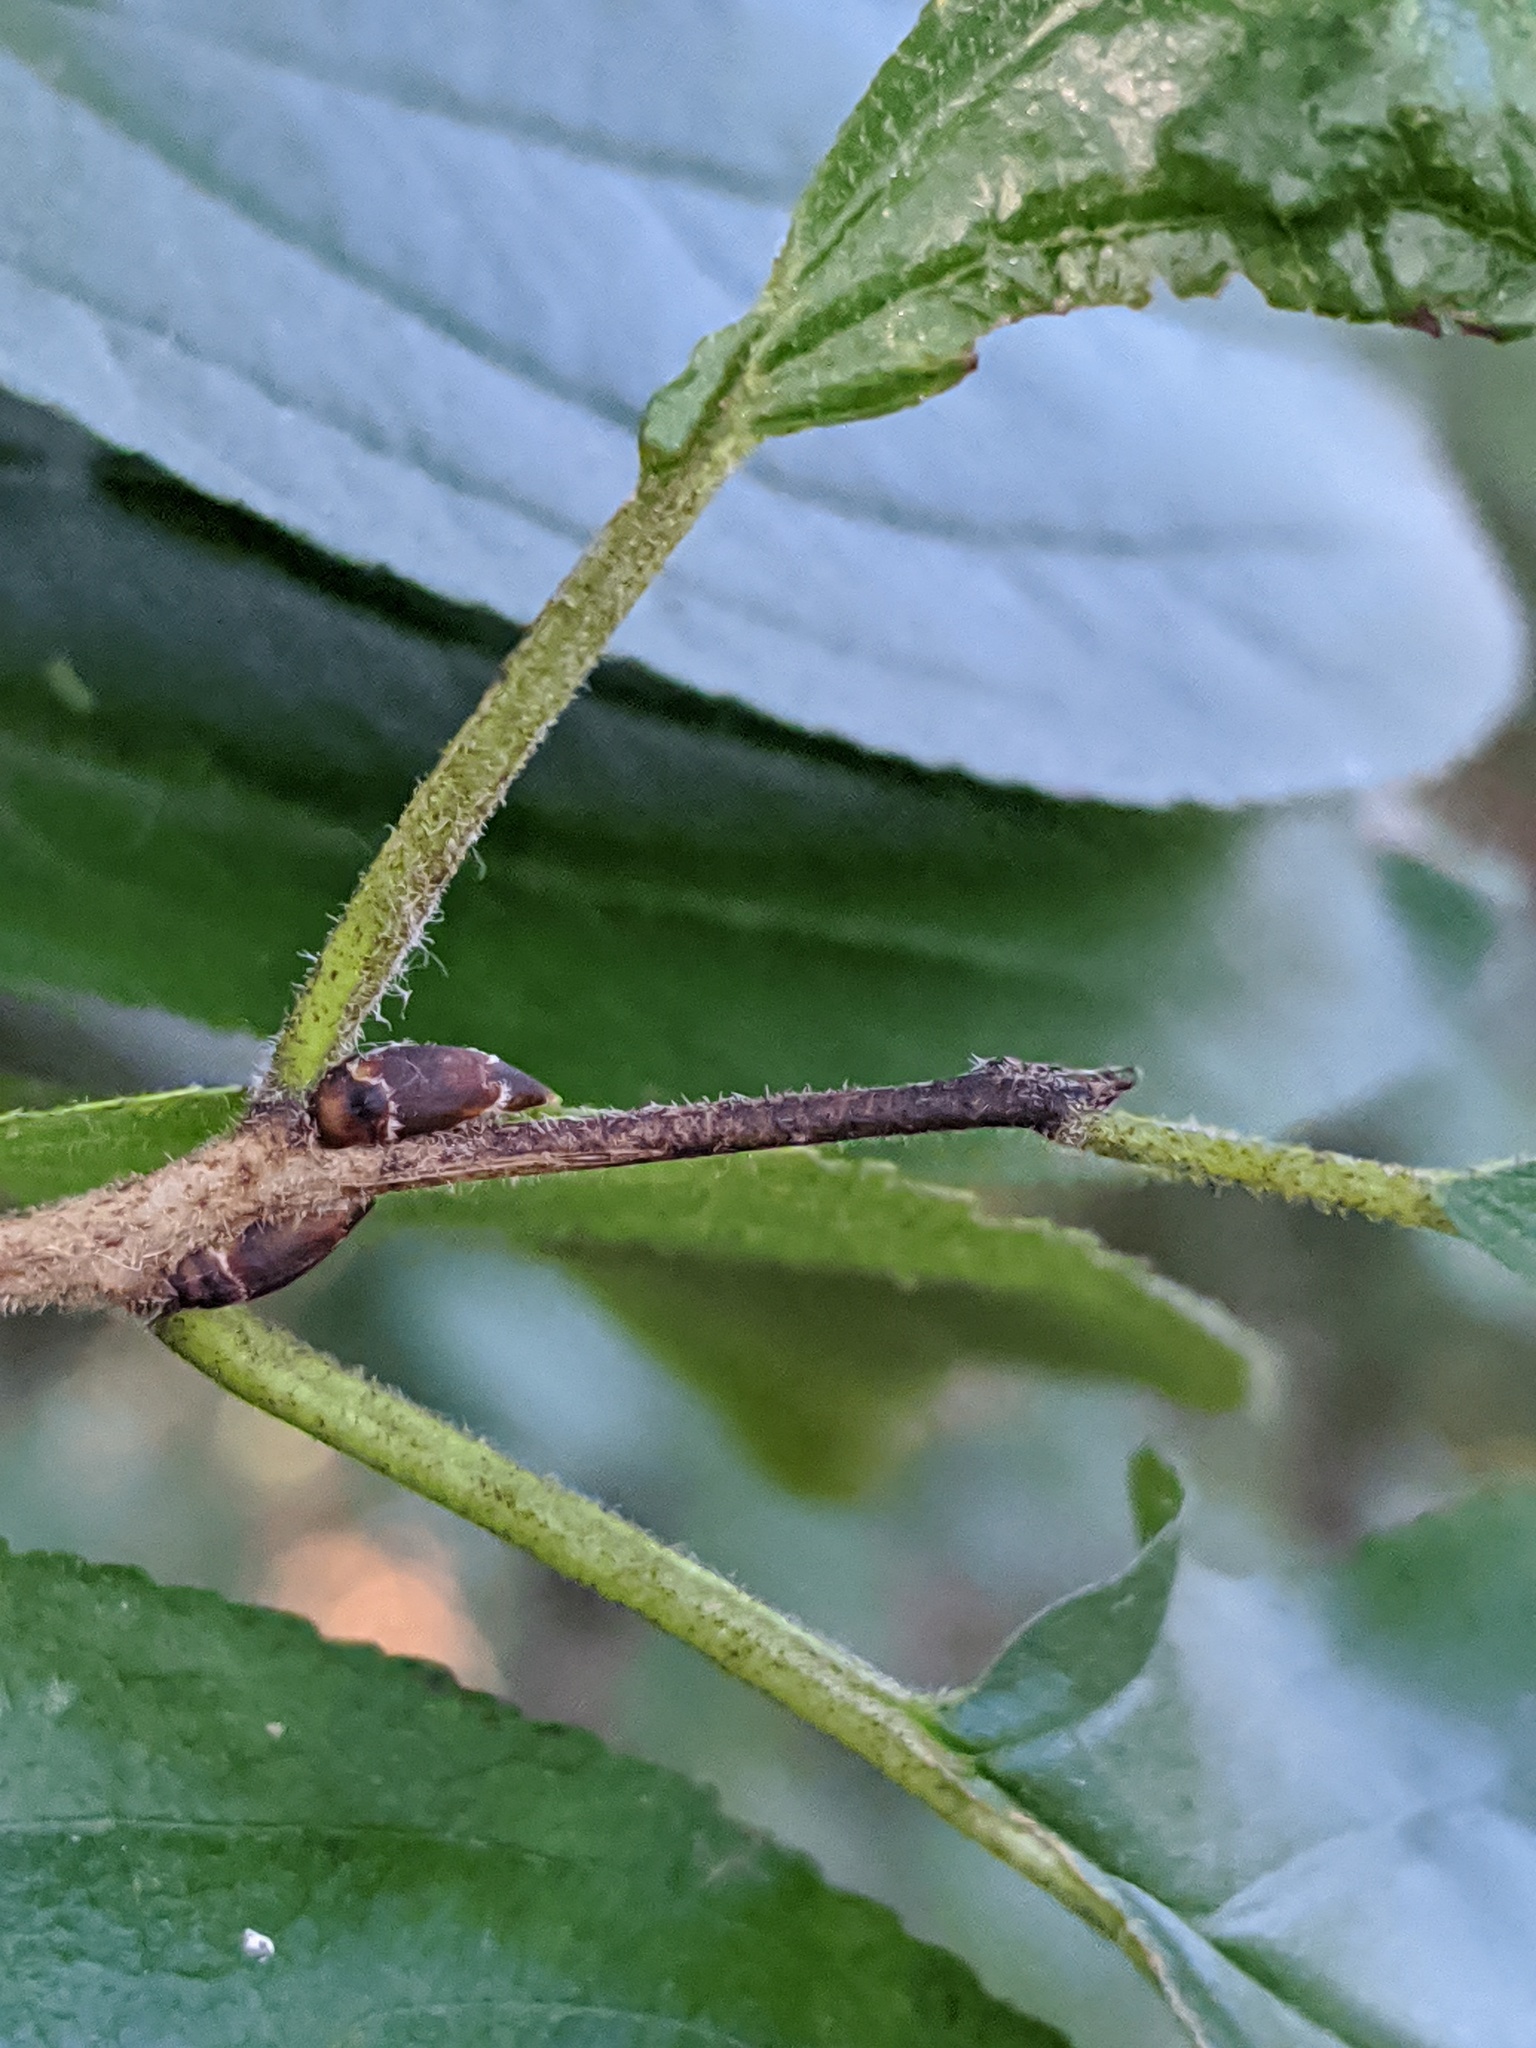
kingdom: Plantae
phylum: Tracheophyta
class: Magnoliopsida
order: Rosales
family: Rhamnaceae
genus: Rhamnus
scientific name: Rhamnus cathartica
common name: Common buckthorn
